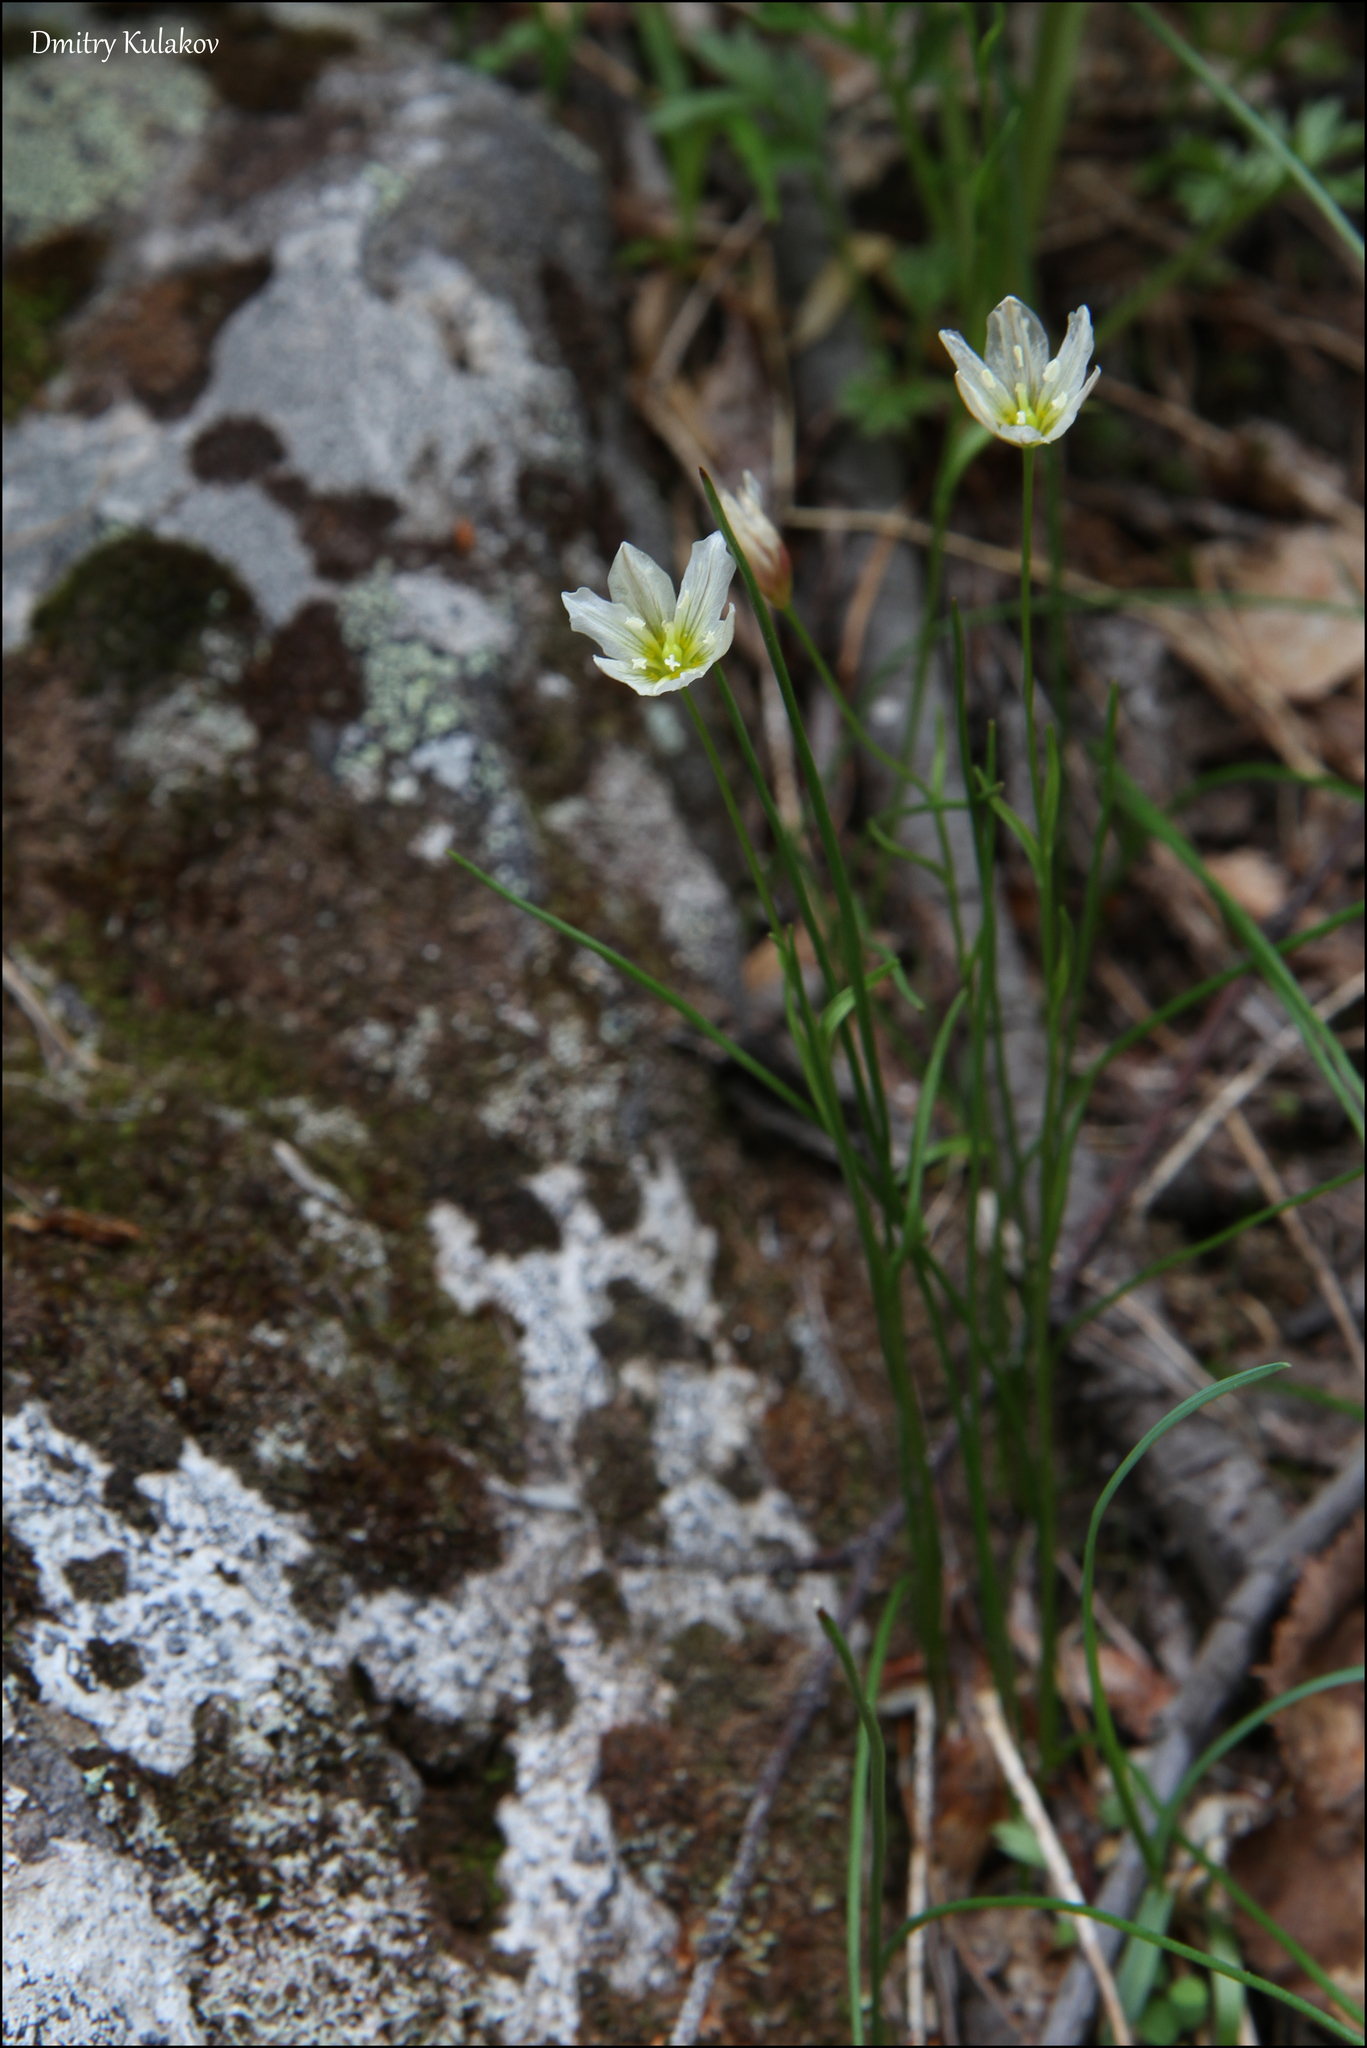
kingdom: Plantae
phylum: Tracheophyta
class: Liliopsida
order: Liliales
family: Liliaceae
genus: Gagea
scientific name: Gagea serotina
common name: Snowdon lily
